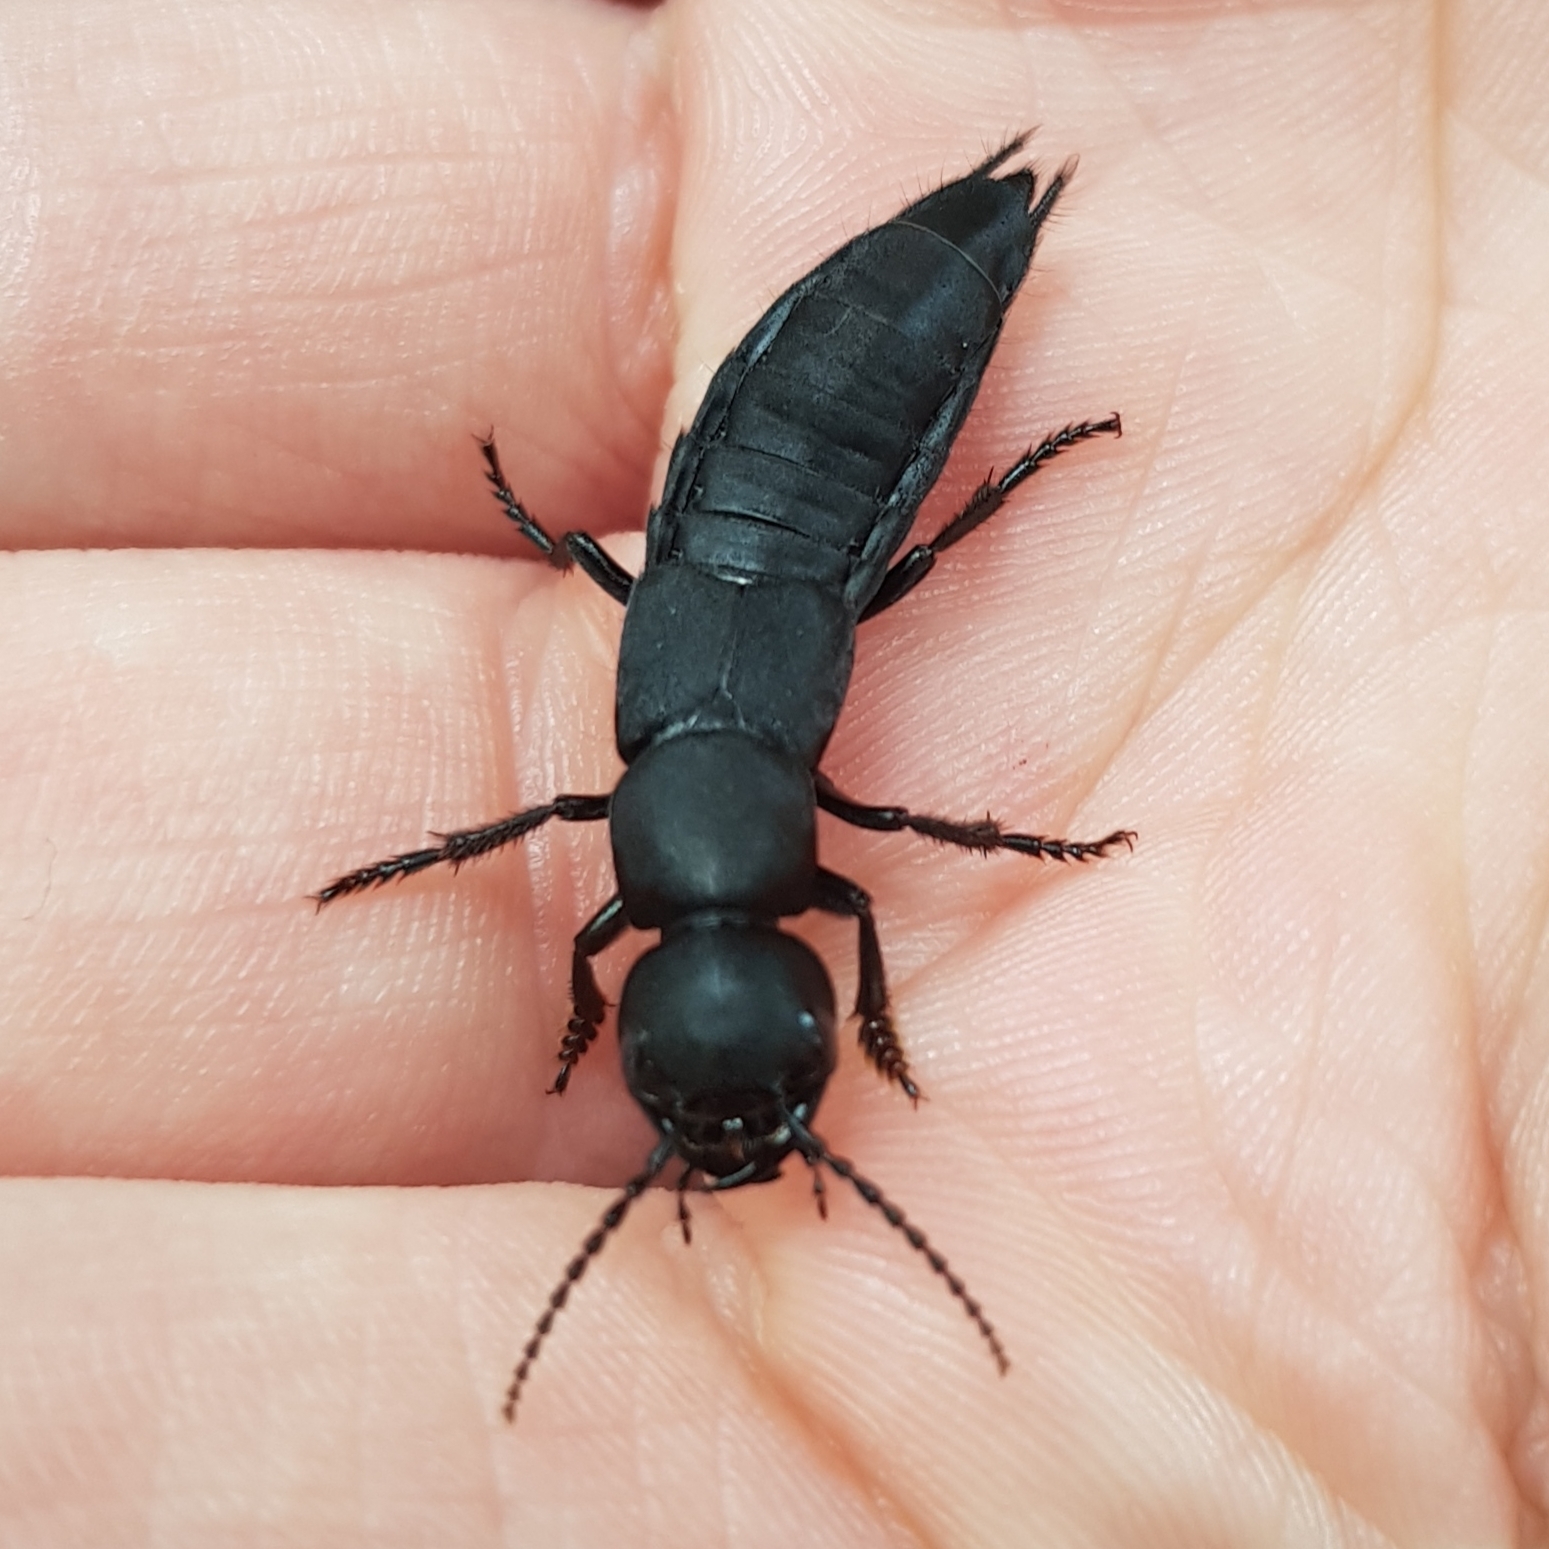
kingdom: Animalia
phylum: Arthropoda
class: Insecta
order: Coleoptera
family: Staphylinidae
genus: Ocypus
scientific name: Ocypus olens
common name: Devil's coach-horse
